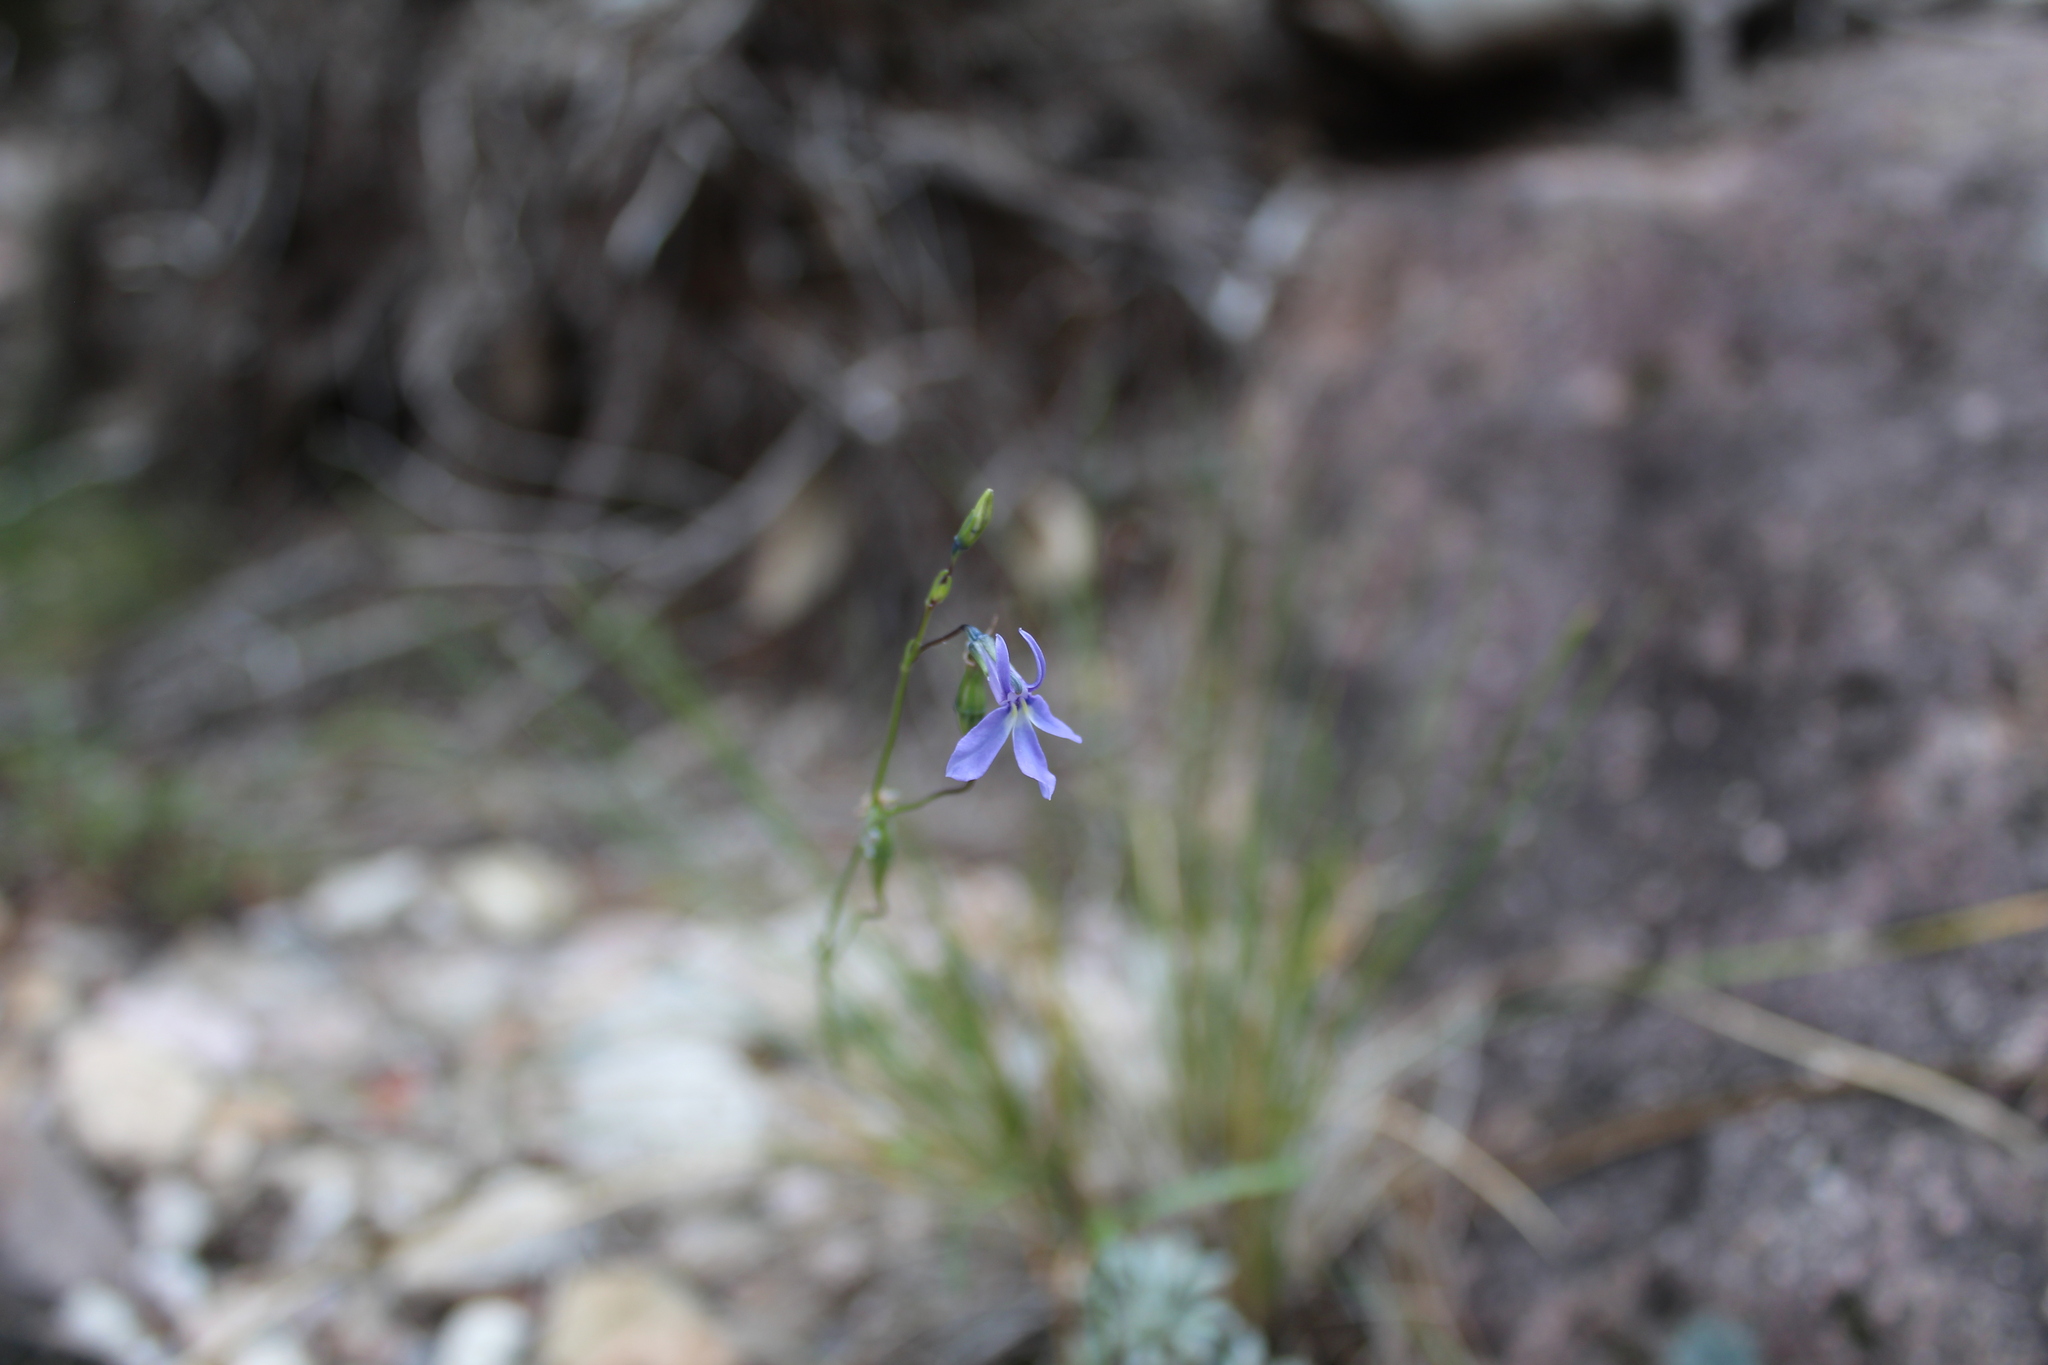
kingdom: Plantae
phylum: Tracheophyta
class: Magnoliopsida
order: Asterales
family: Campanulaceae
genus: Lobelia
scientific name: Lobelia guzmanii
